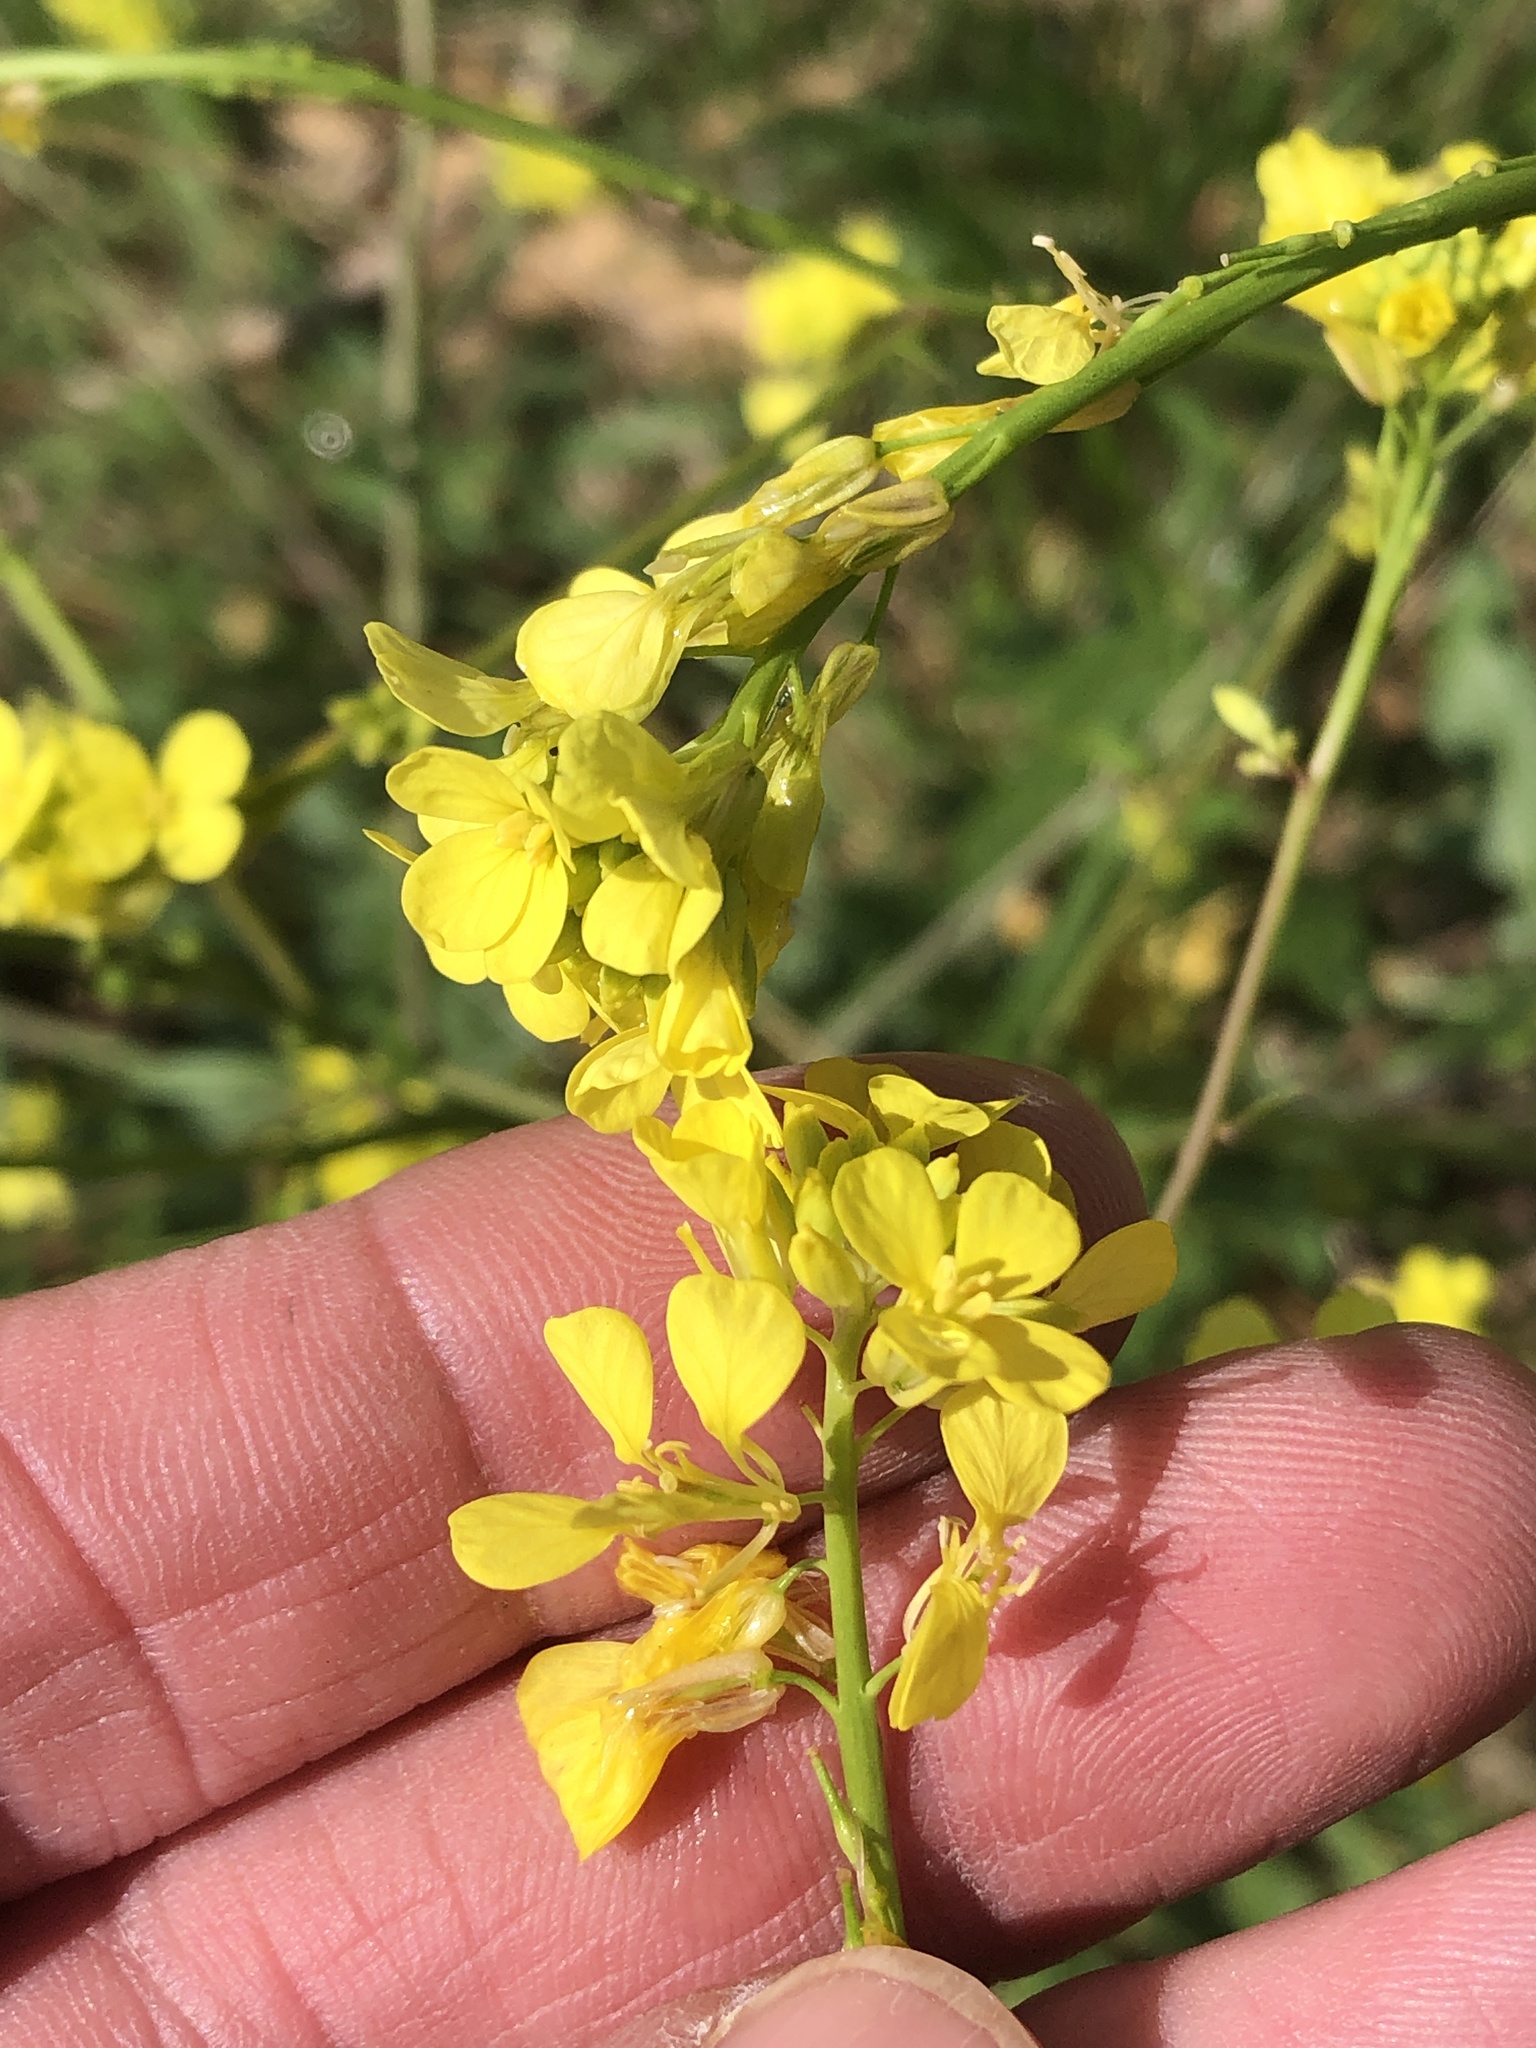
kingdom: Plantae
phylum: Tracheophyta
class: Magnoliopsida
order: Brassicales
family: Brassicaceae
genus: Rapistrum
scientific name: Rapistrum rugosum
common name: Annual bastardcabbage
